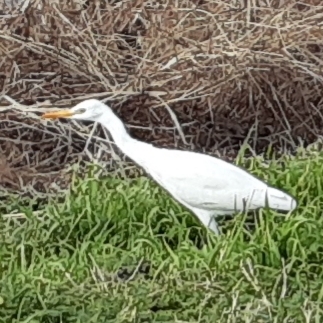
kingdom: Animalia
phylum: Chordata
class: Aves
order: Pelecaniformes
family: Ardeidae
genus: Bubulcus
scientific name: Bubulcus ibis
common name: Cattle egret
